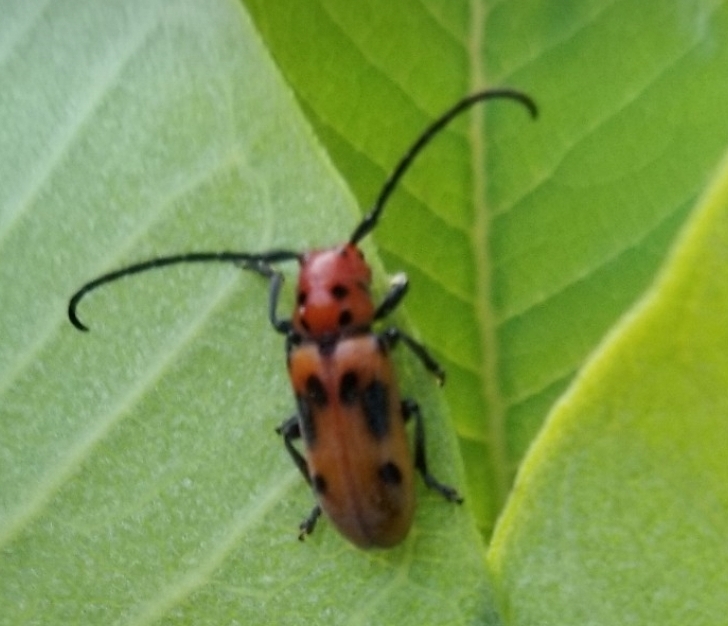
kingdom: Animalia
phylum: Arthropoda
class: Insecta
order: Coleoptera
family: Cerambycidae
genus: Tetraopes
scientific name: Tetraopes tetrophthalmus
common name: Red milkweed beetle
